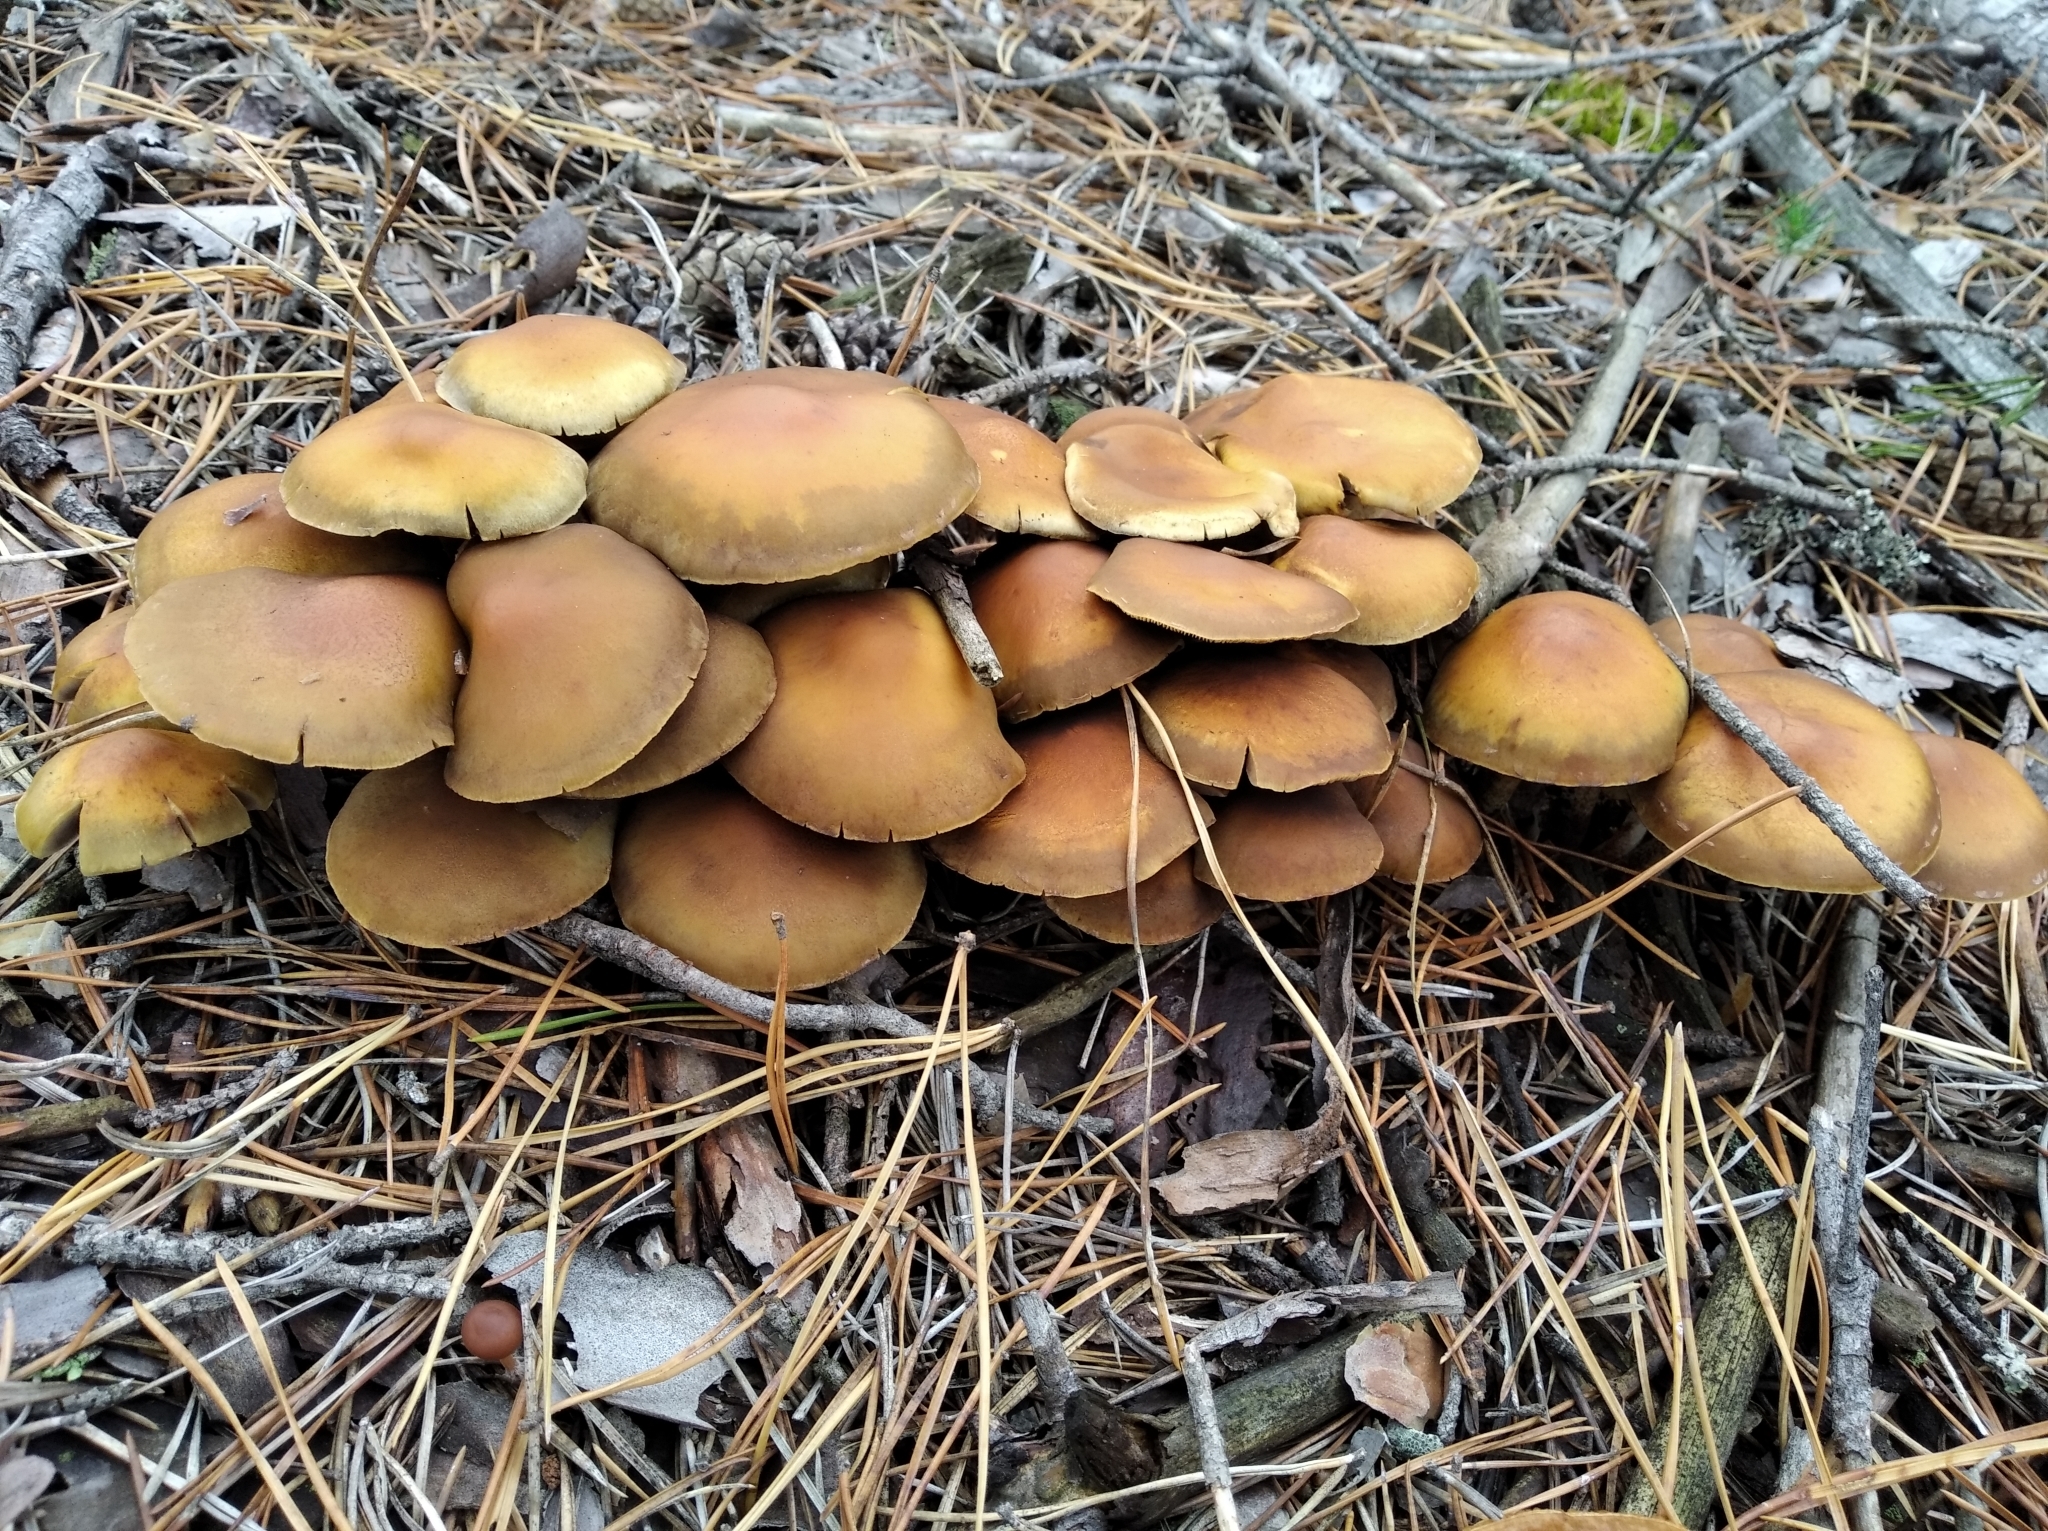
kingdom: Fungi
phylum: Basidiomycota
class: Agaricomycetes
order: Agaricales
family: Strophariaceae
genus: Hypholoma
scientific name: Hypholoma capnoides
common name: Conifer tuft
